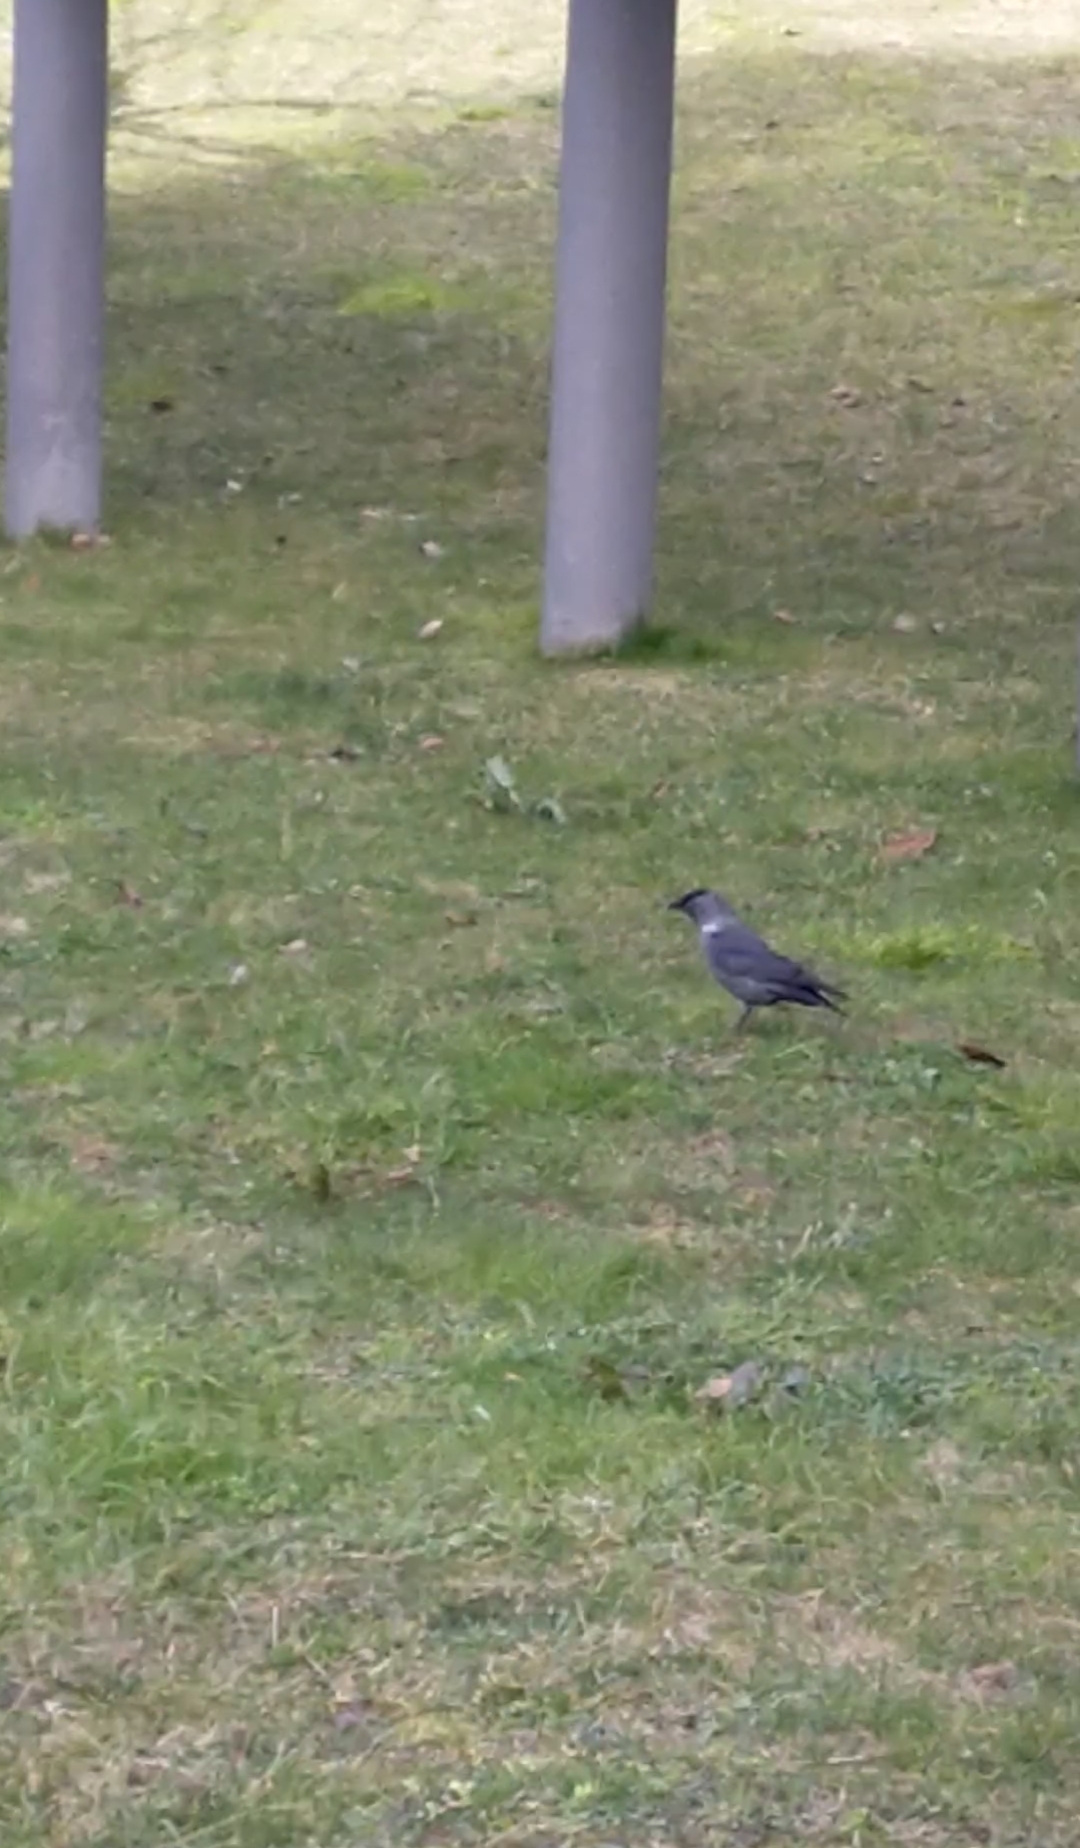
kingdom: Animalia
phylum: Chordata
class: Aves
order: Passeriformes
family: Corvidae
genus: Coloeus
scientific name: Coloeus monedula
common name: Western jackdaw
